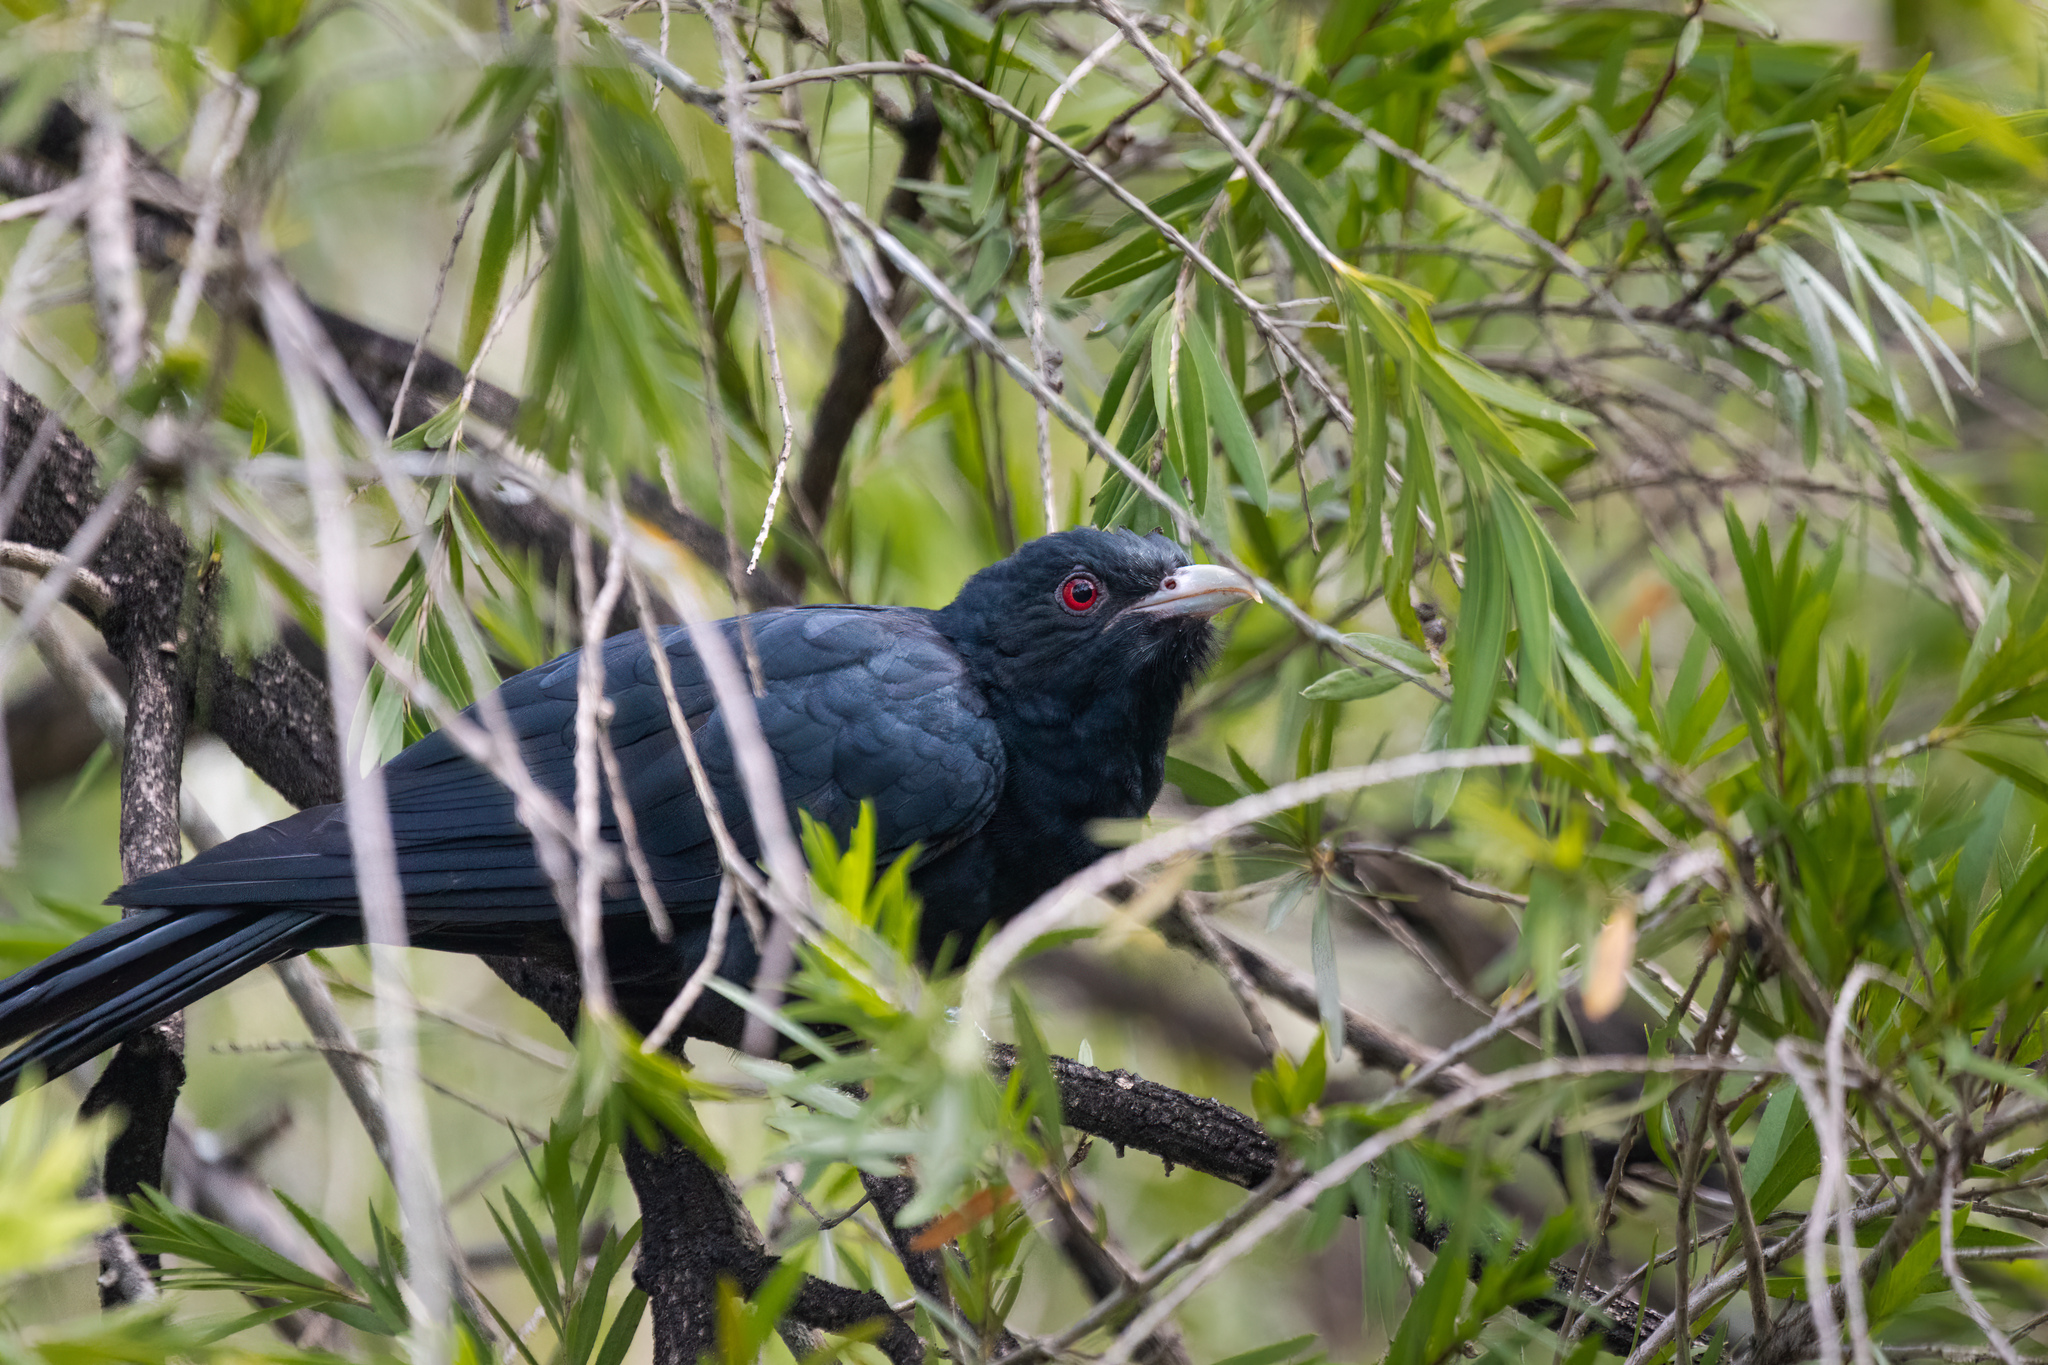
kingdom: Animalia
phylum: Chordata
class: Aves
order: Cuculiformes
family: Cuculidae
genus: Eudynamys
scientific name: Eudynamys scolopaceus
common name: Asian koel
